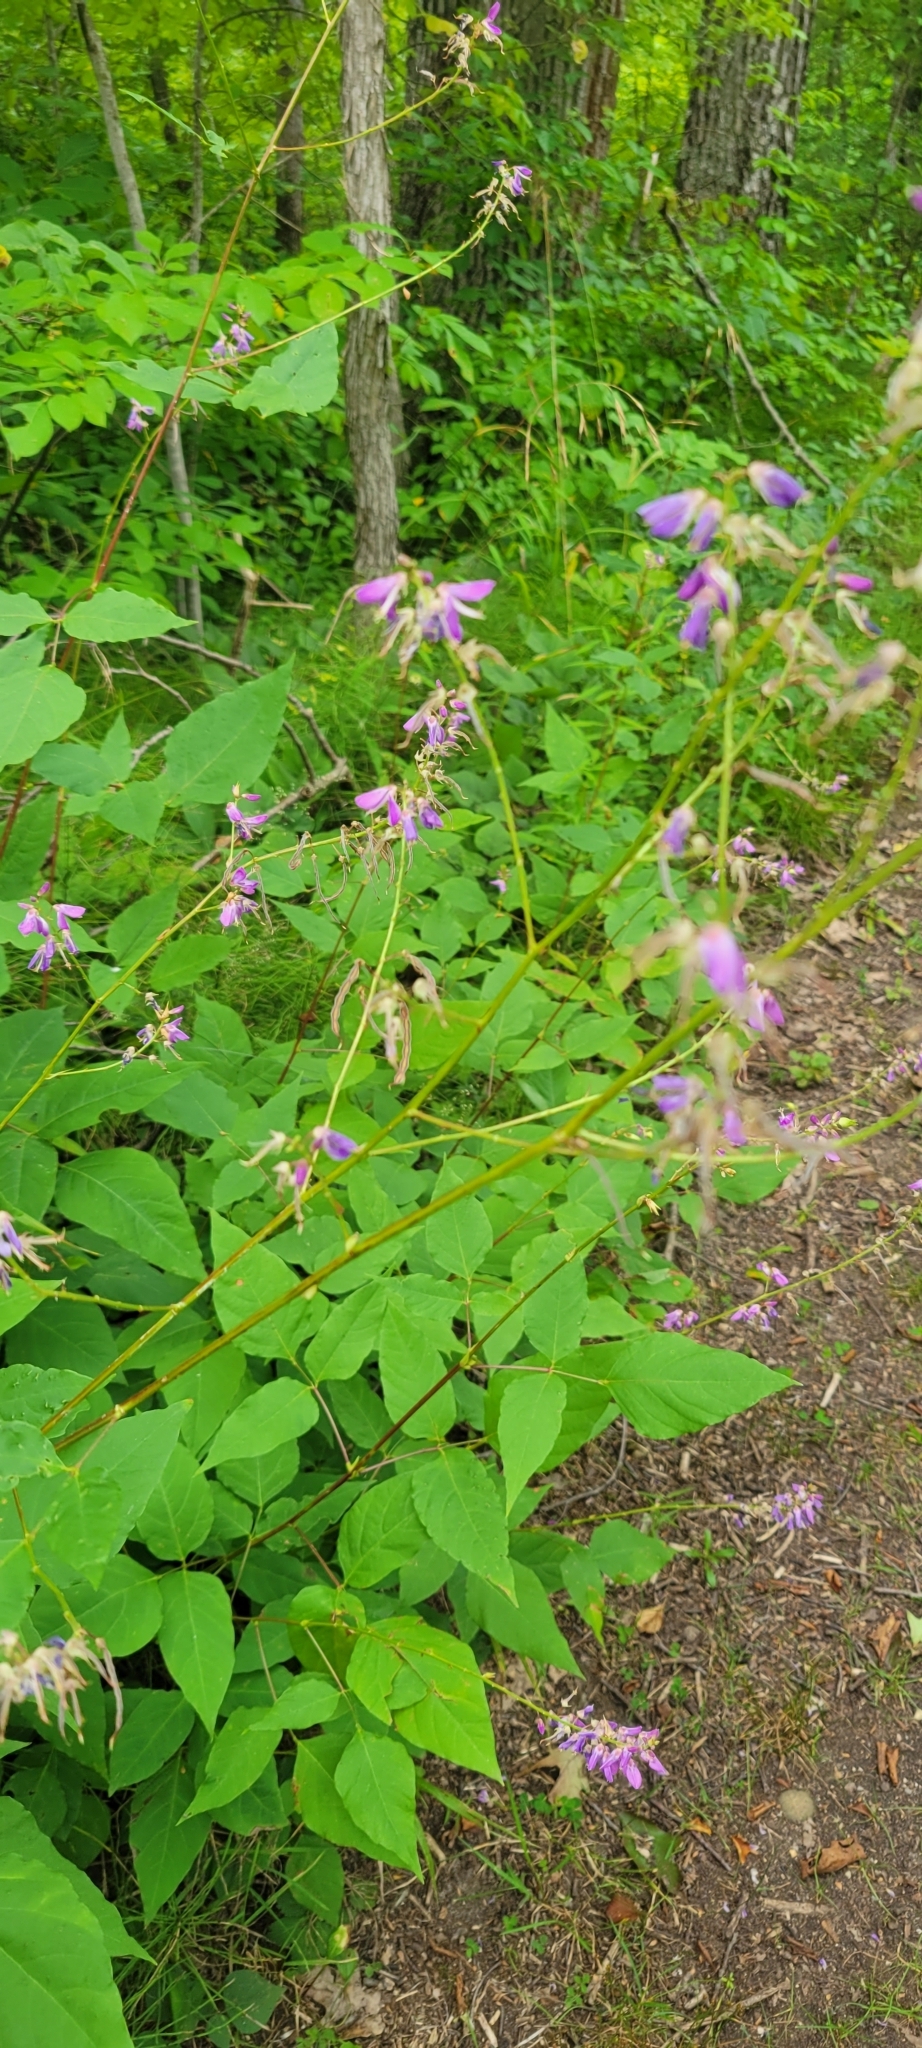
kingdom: Plantae
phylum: Tracheophyta
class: Magnoliopsida
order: Fabales
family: Fabaceae
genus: Desmodium
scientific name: Desmodium cuspidatum
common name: Big tick trefoil
